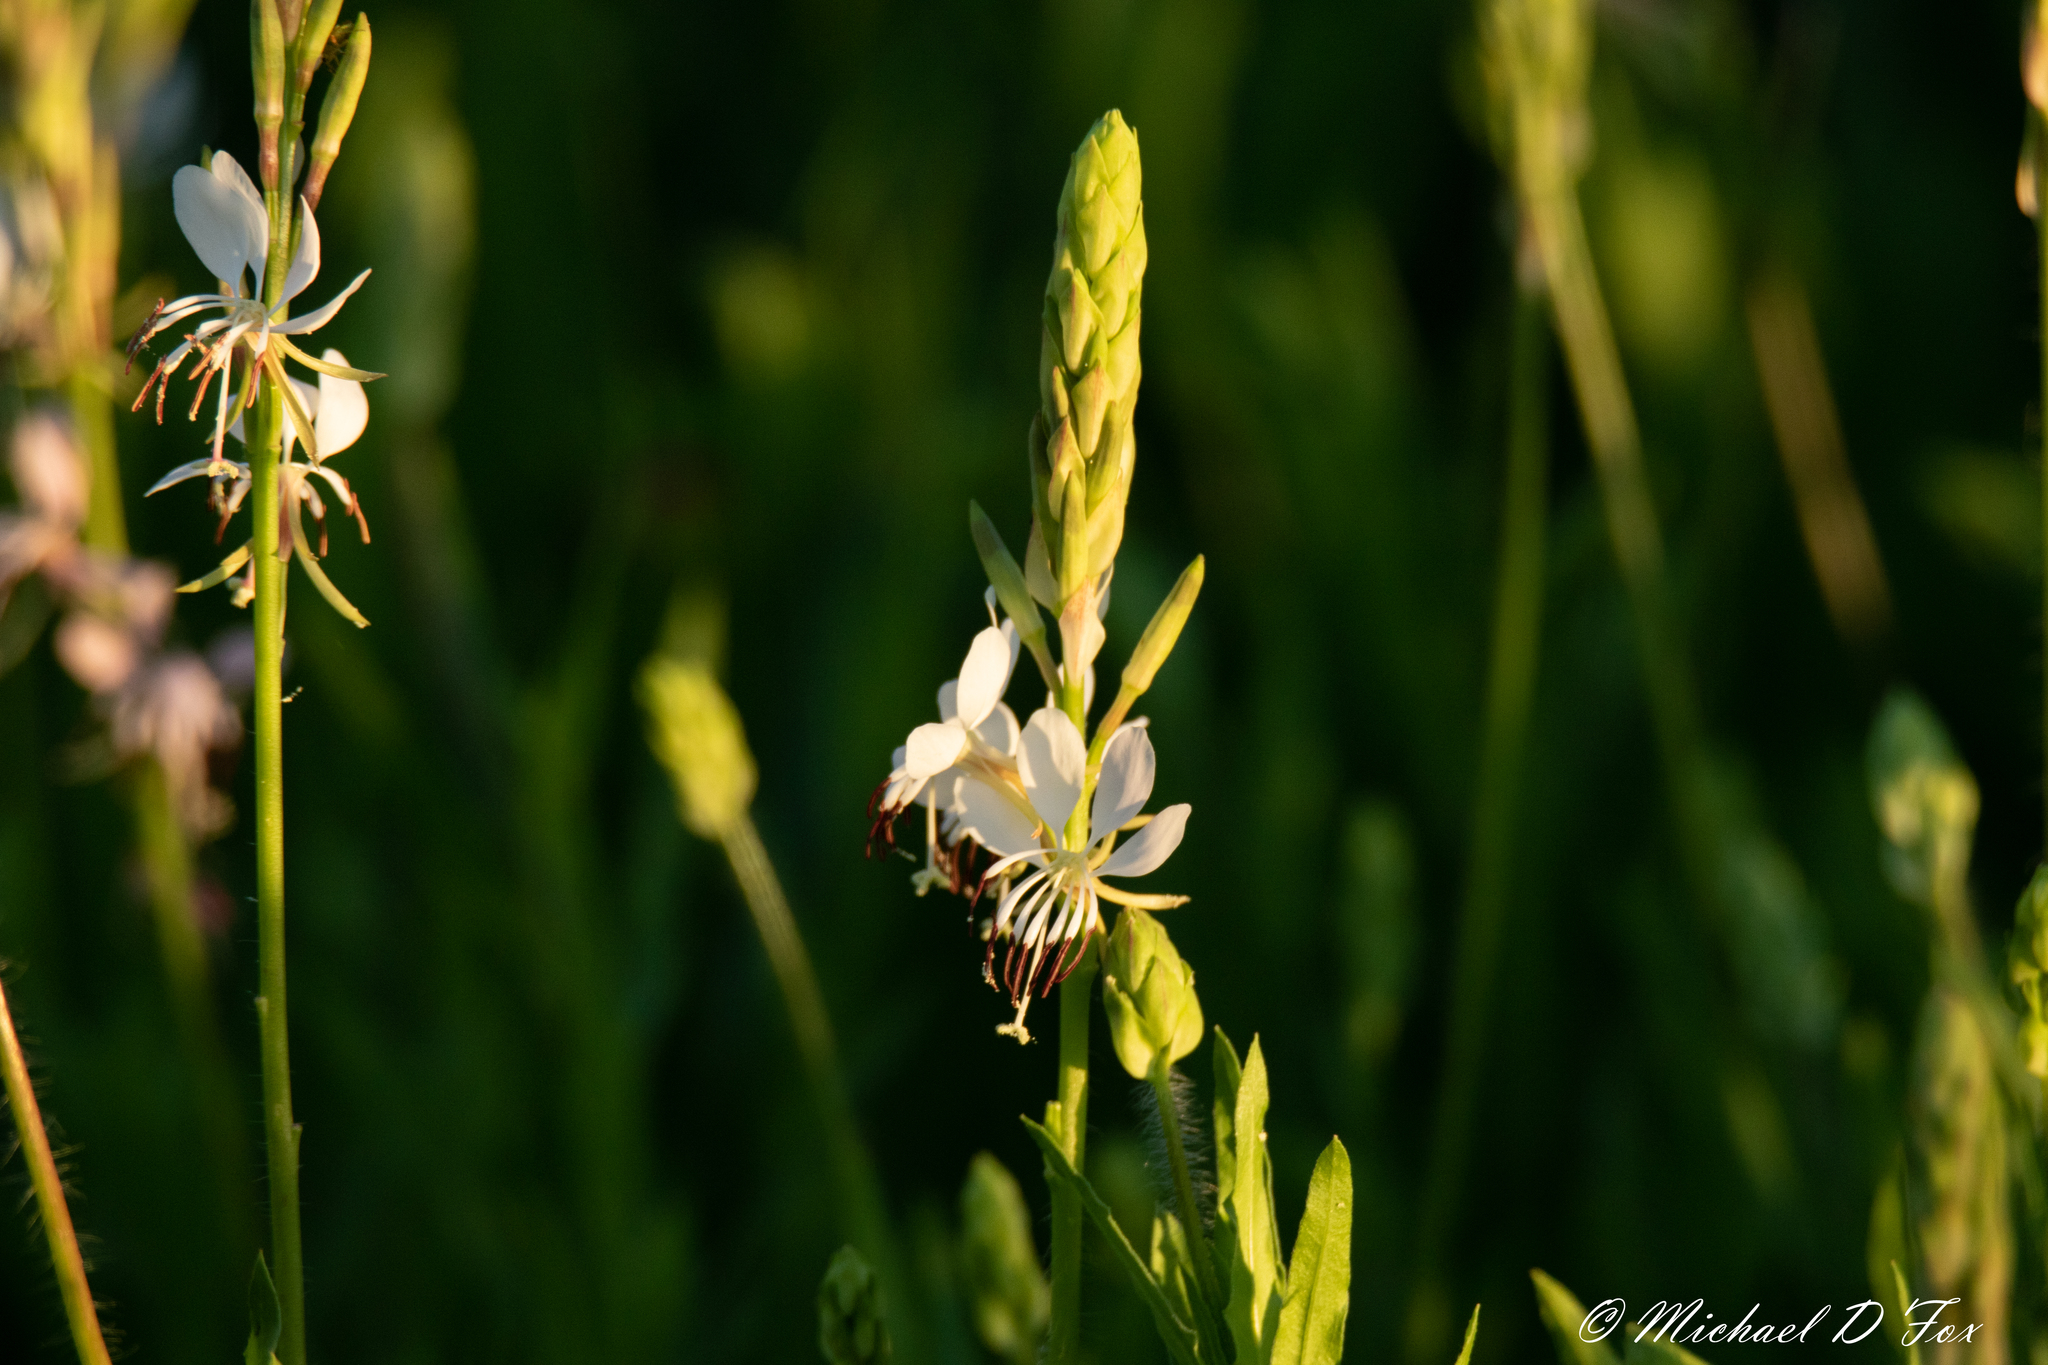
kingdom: Plantae
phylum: Tracheophyta
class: Magnoliopsida
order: Myrtales
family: Onagraceae
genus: Oenothera
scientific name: Oenothera suffulta
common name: Kisses
